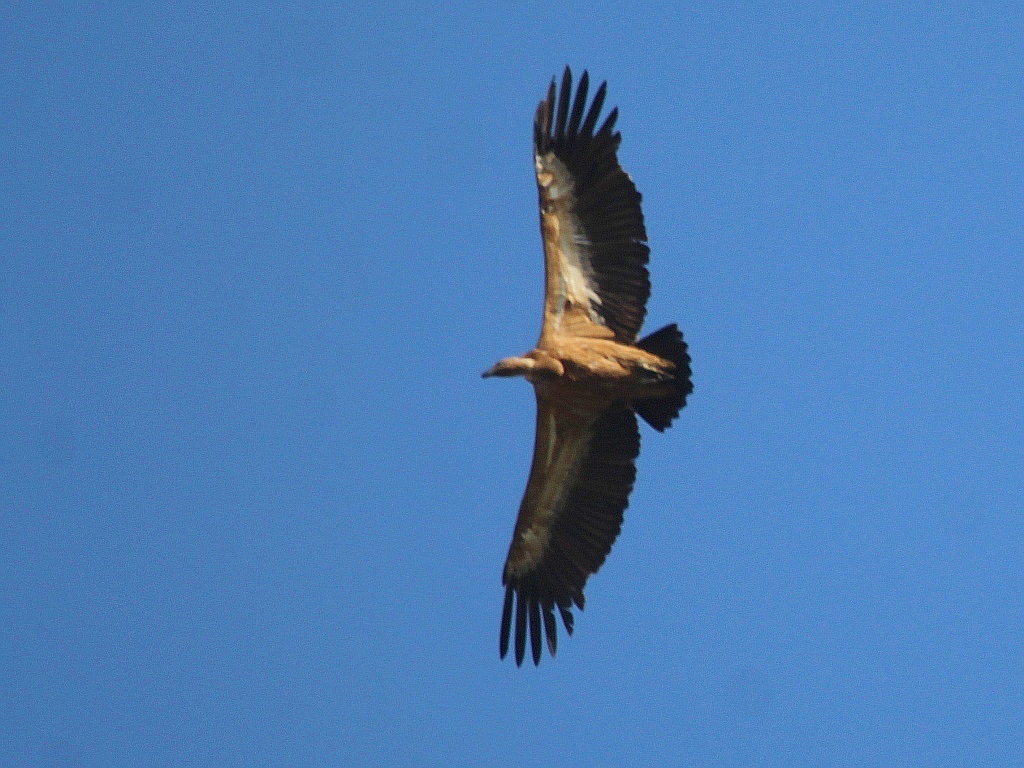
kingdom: Animalia
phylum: Chordata
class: Aves
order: Accipitriformes
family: Accipitridae
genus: Gyps
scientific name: Gyps fulvus
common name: Griffon vulture
